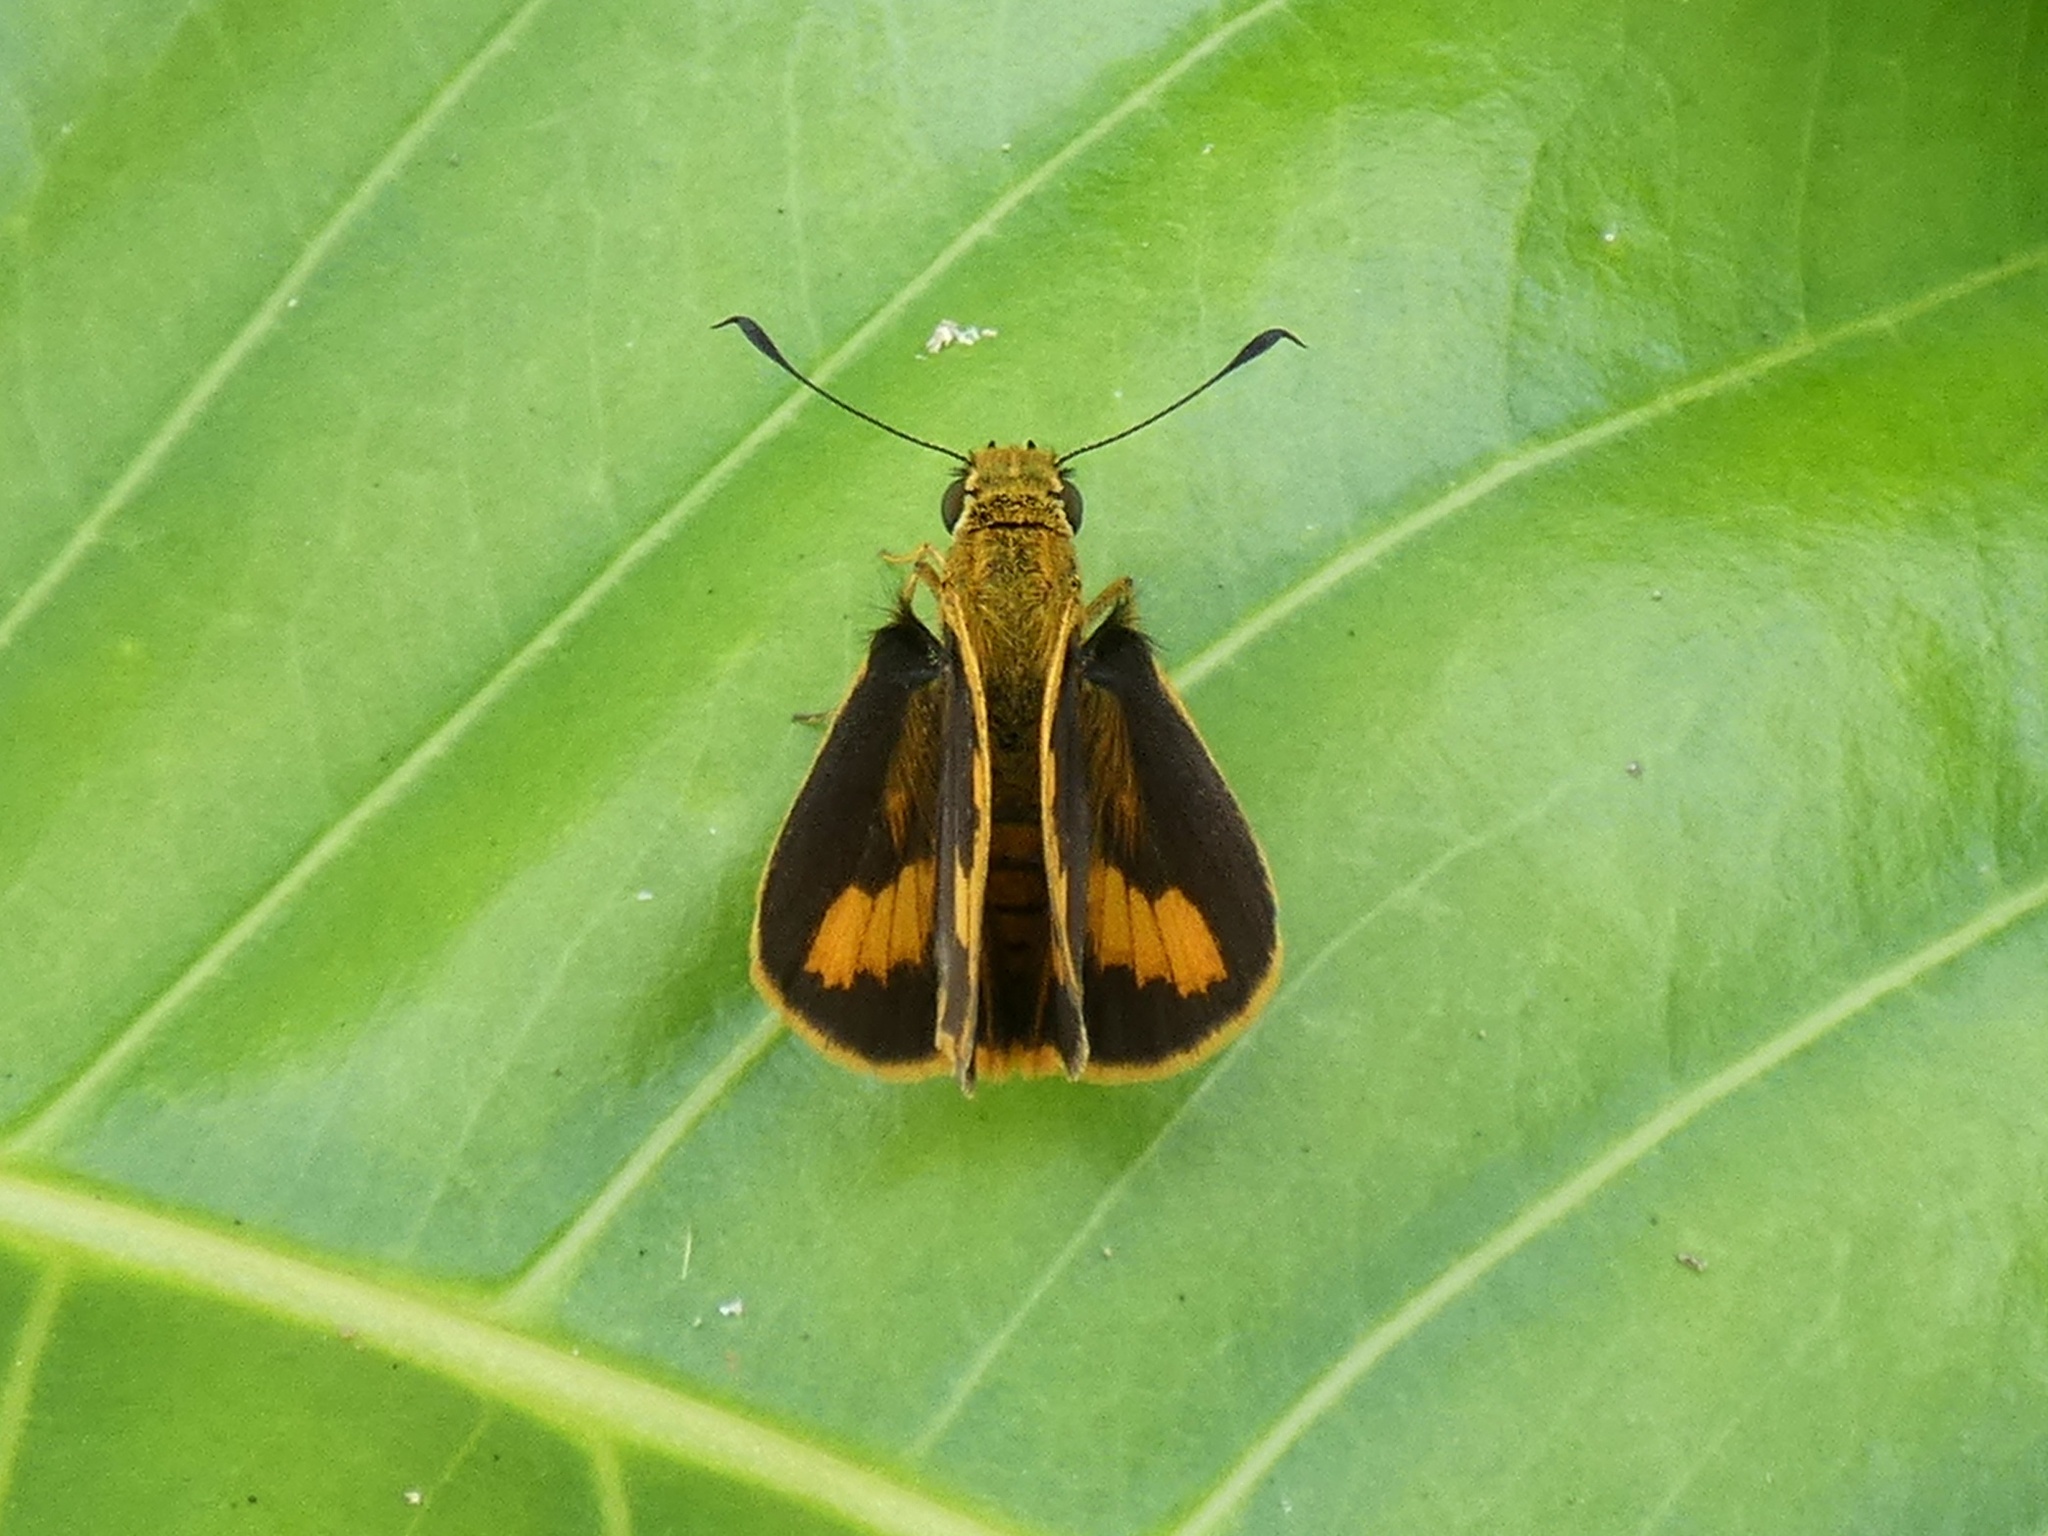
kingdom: Animalia
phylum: Arthropoda
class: Insecta
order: Lepidoptera
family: Hesperiidae
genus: Ocybadistes
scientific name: Ocybadistes ardea
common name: Dark orange dart
